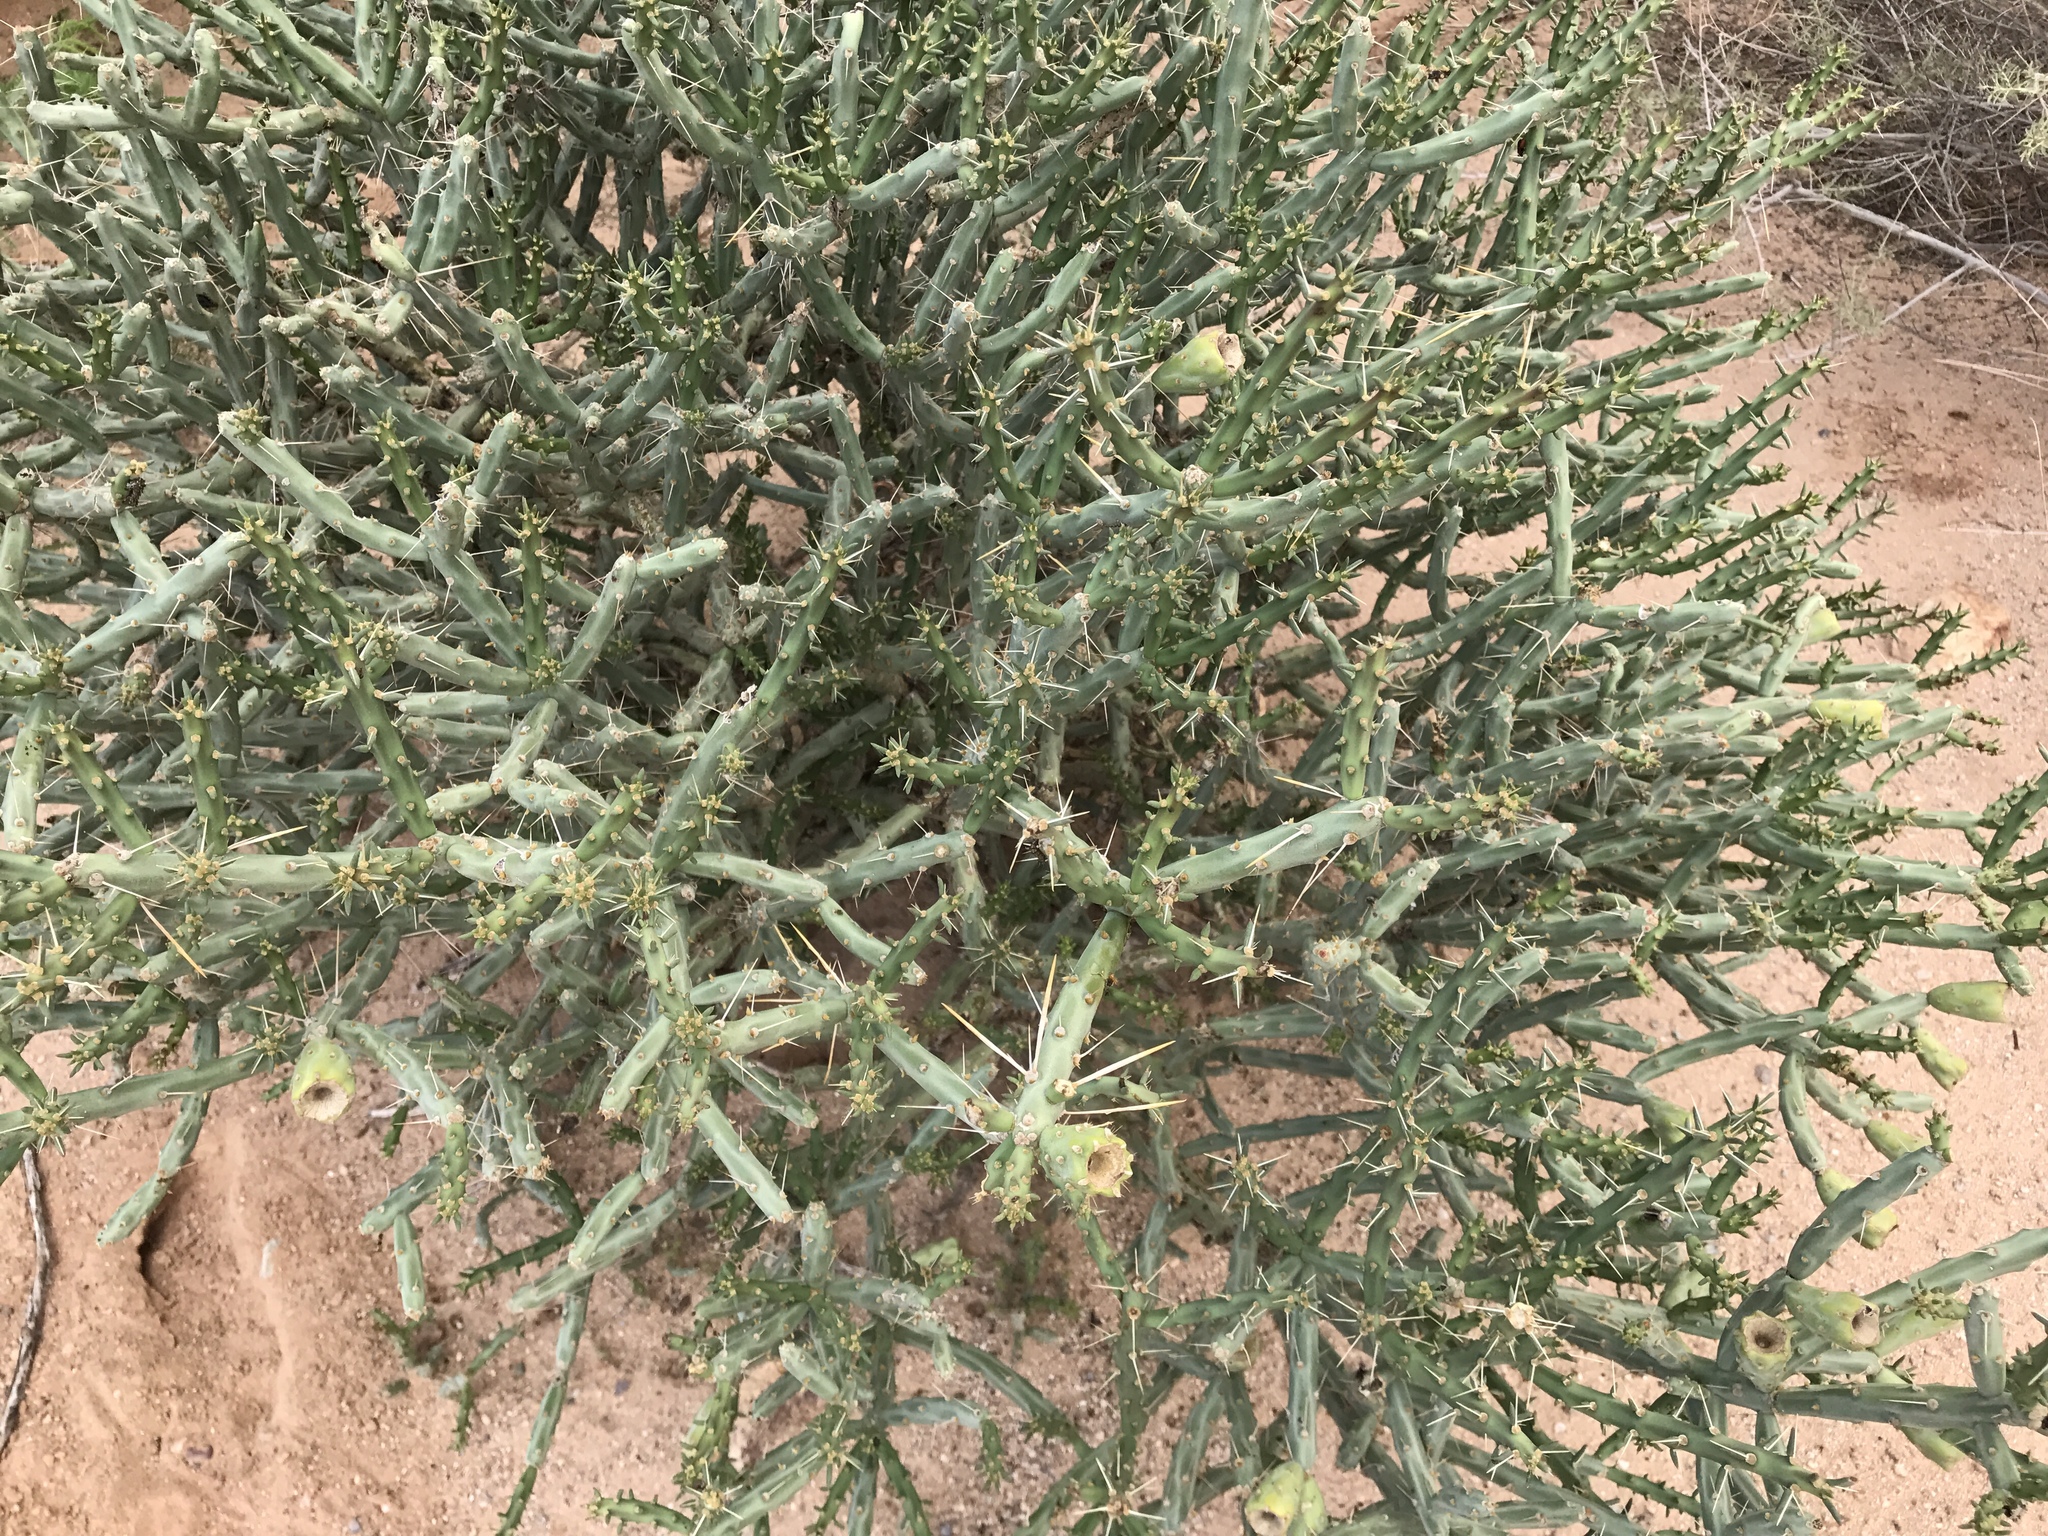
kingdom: Plantae
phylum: Tracheophyta
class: Magnoliopsida
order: Caryophyllales
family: Cactaceae
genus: Cylindropuntia
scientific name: Cylindropuntia arbuscula
